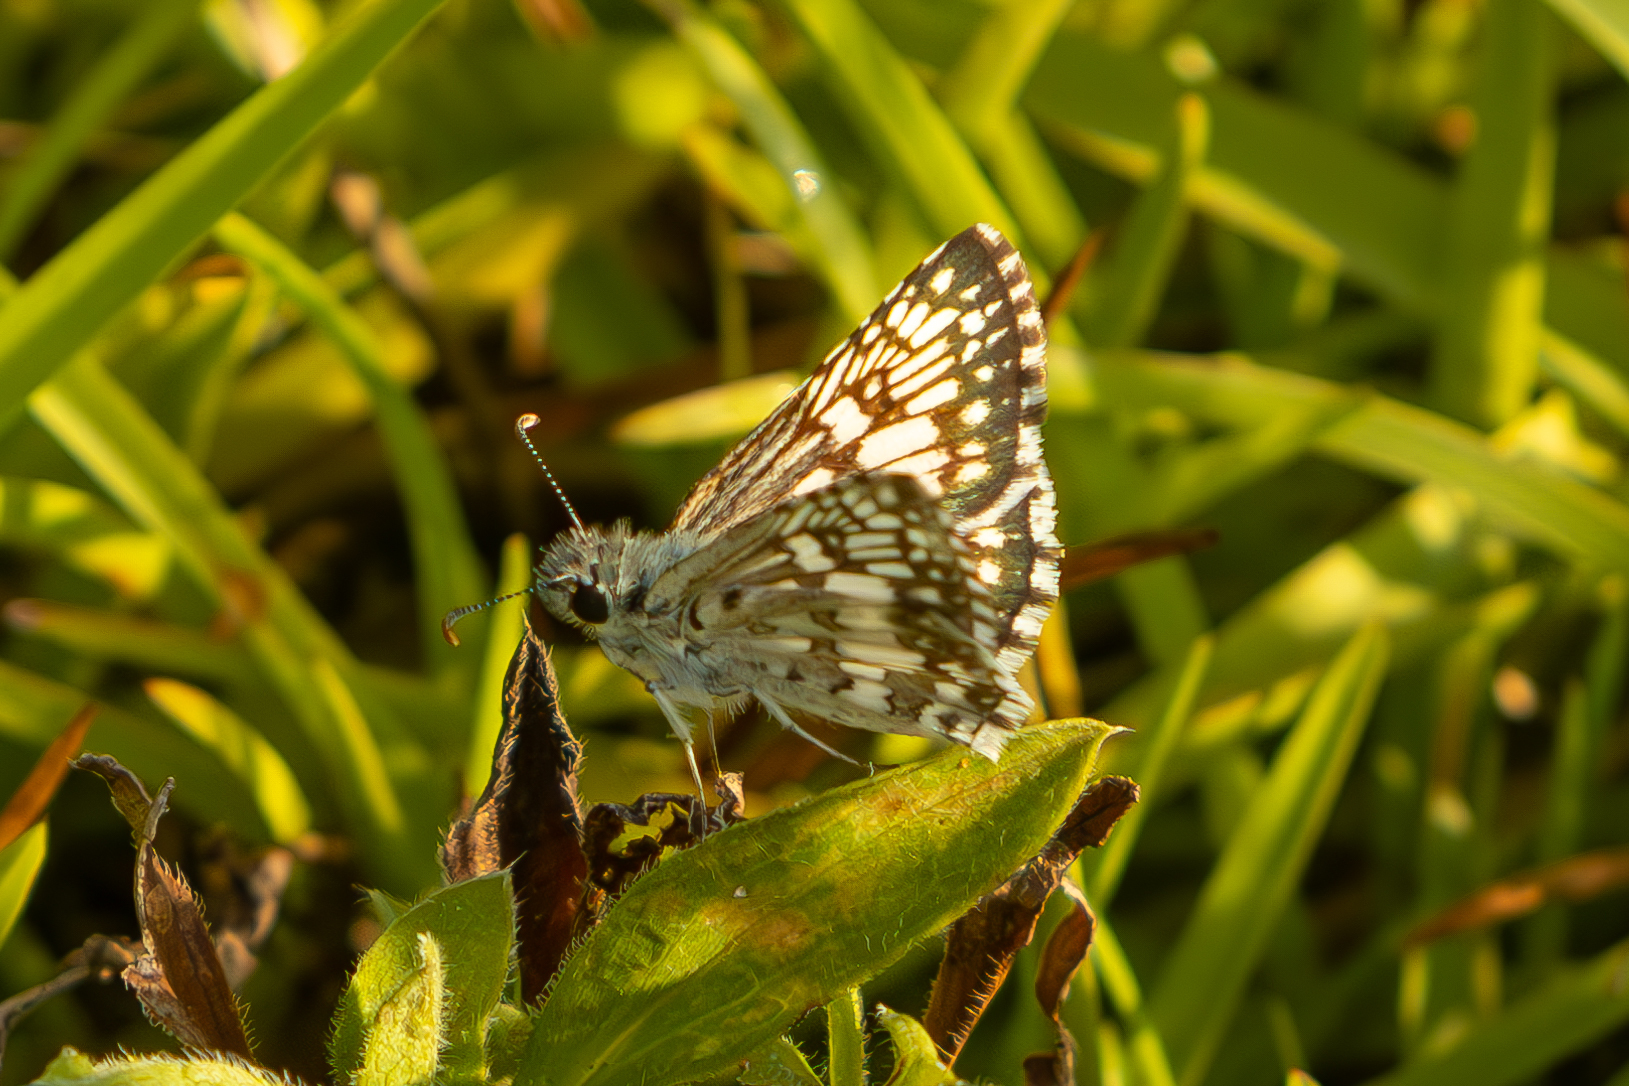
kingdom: Animalia
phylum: Arthropoda
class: Insecta
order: Lepidoptera
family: Hesperiidae
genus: Burnsius
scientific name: Burnsius communis
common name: Common checkered-skipper
